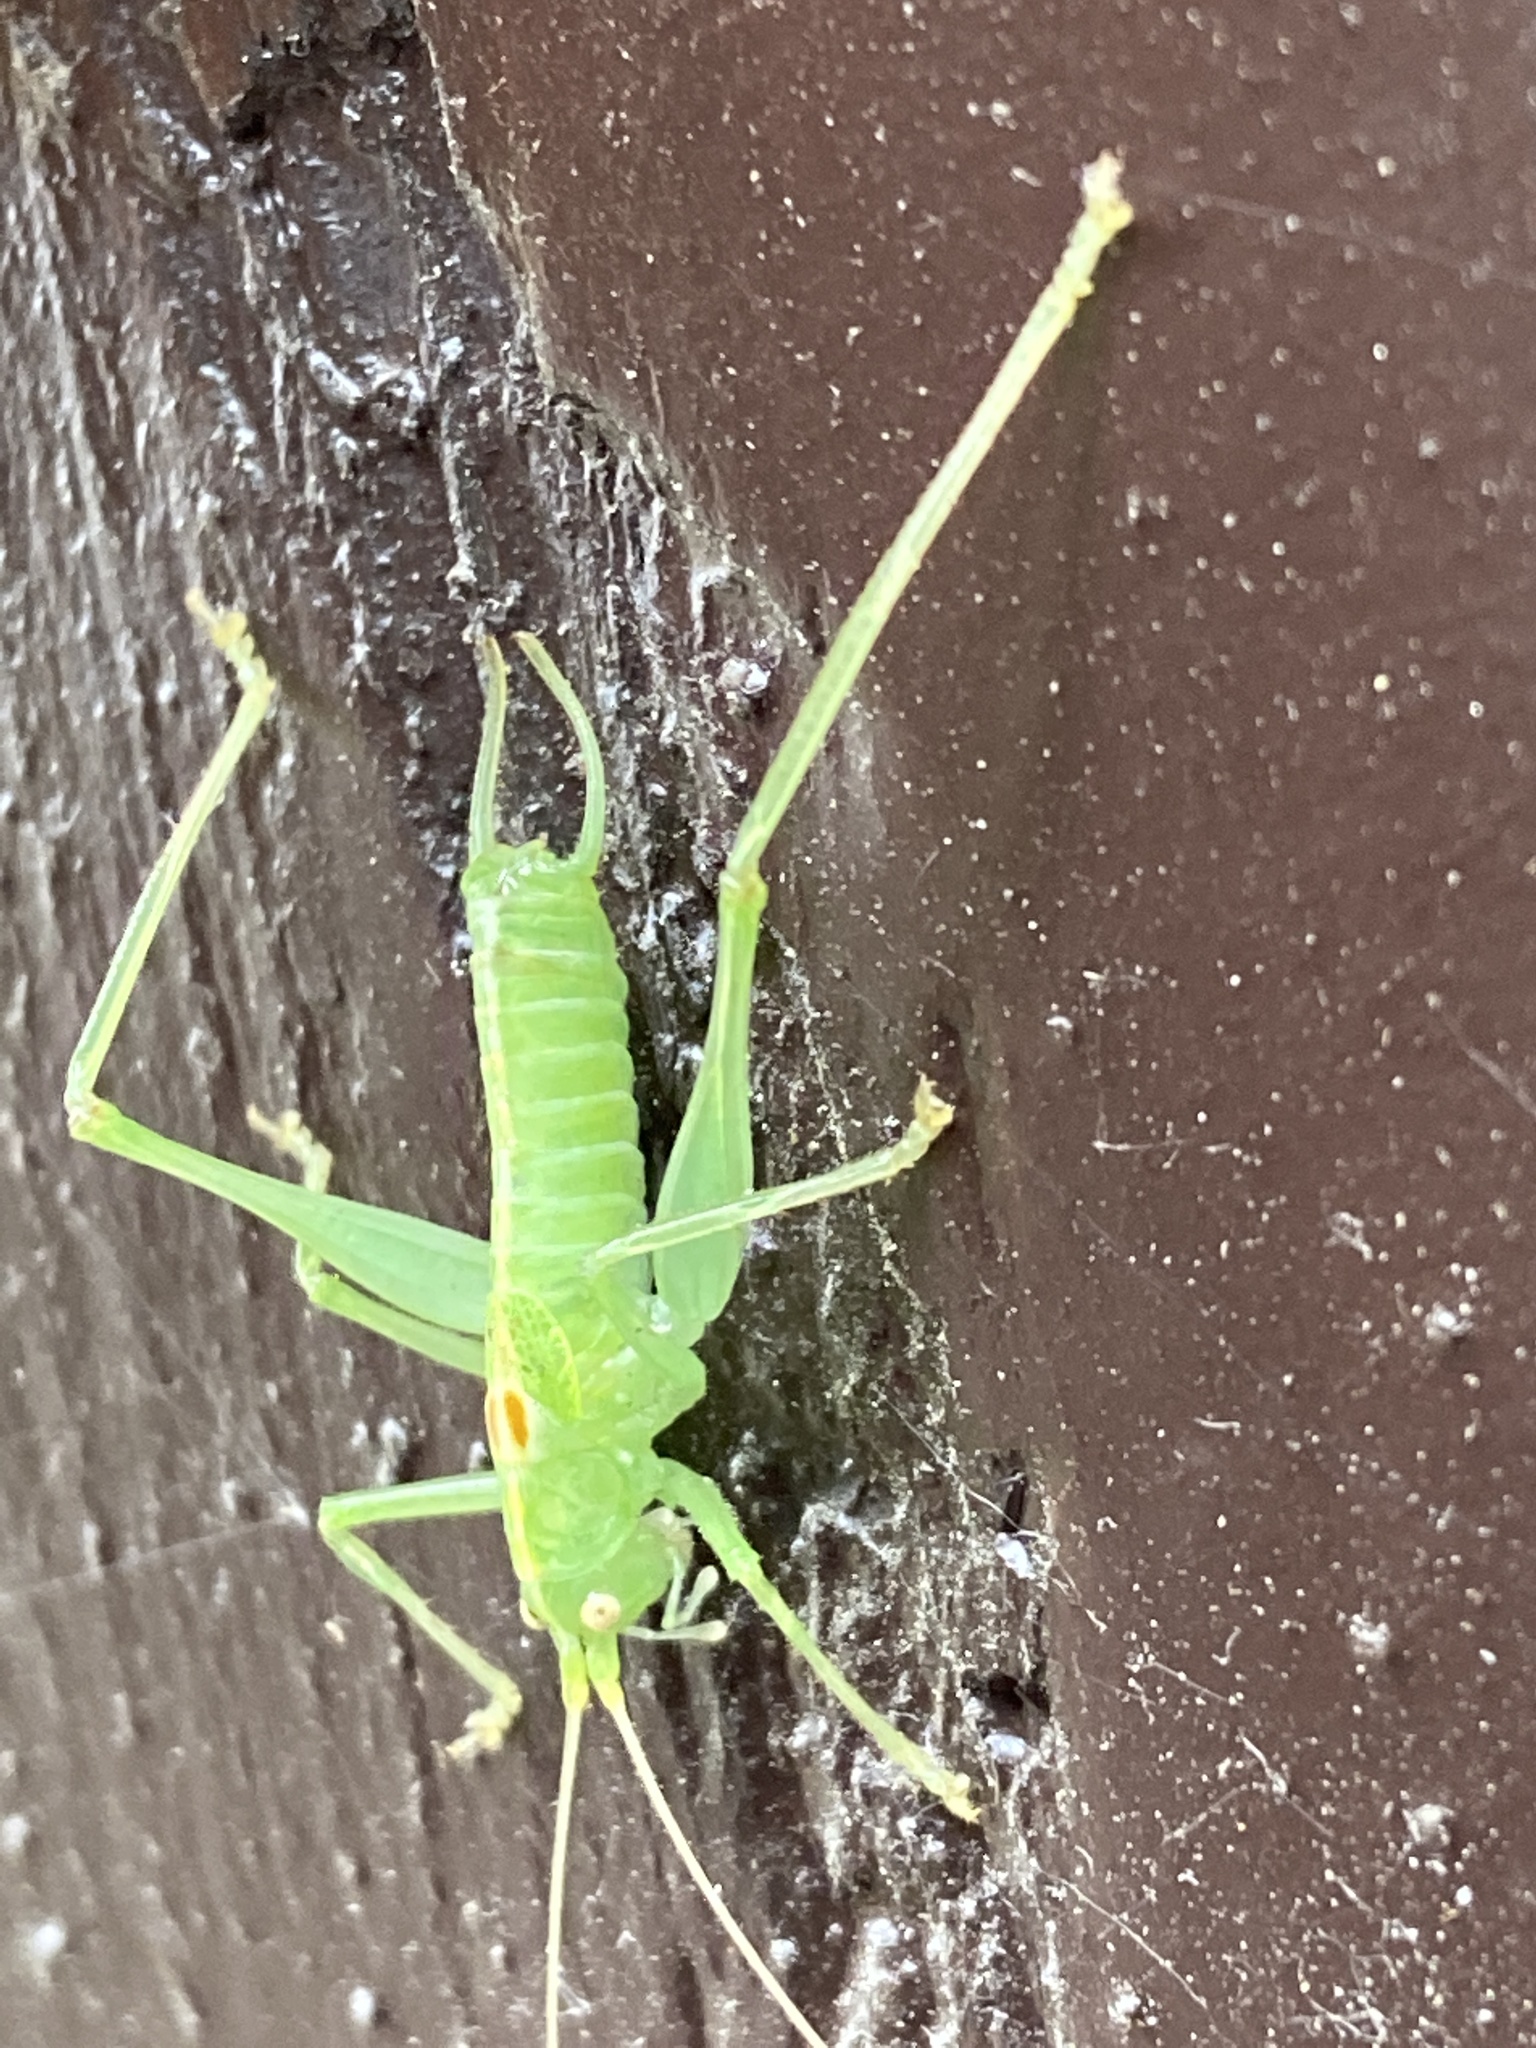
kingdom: Animalia
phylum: Arthropoda
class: Insecta
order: Orthoptera
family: Tettigoniidae
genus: Meconema
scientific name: Meconema meridionale
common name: Southern oak bush-cricket
